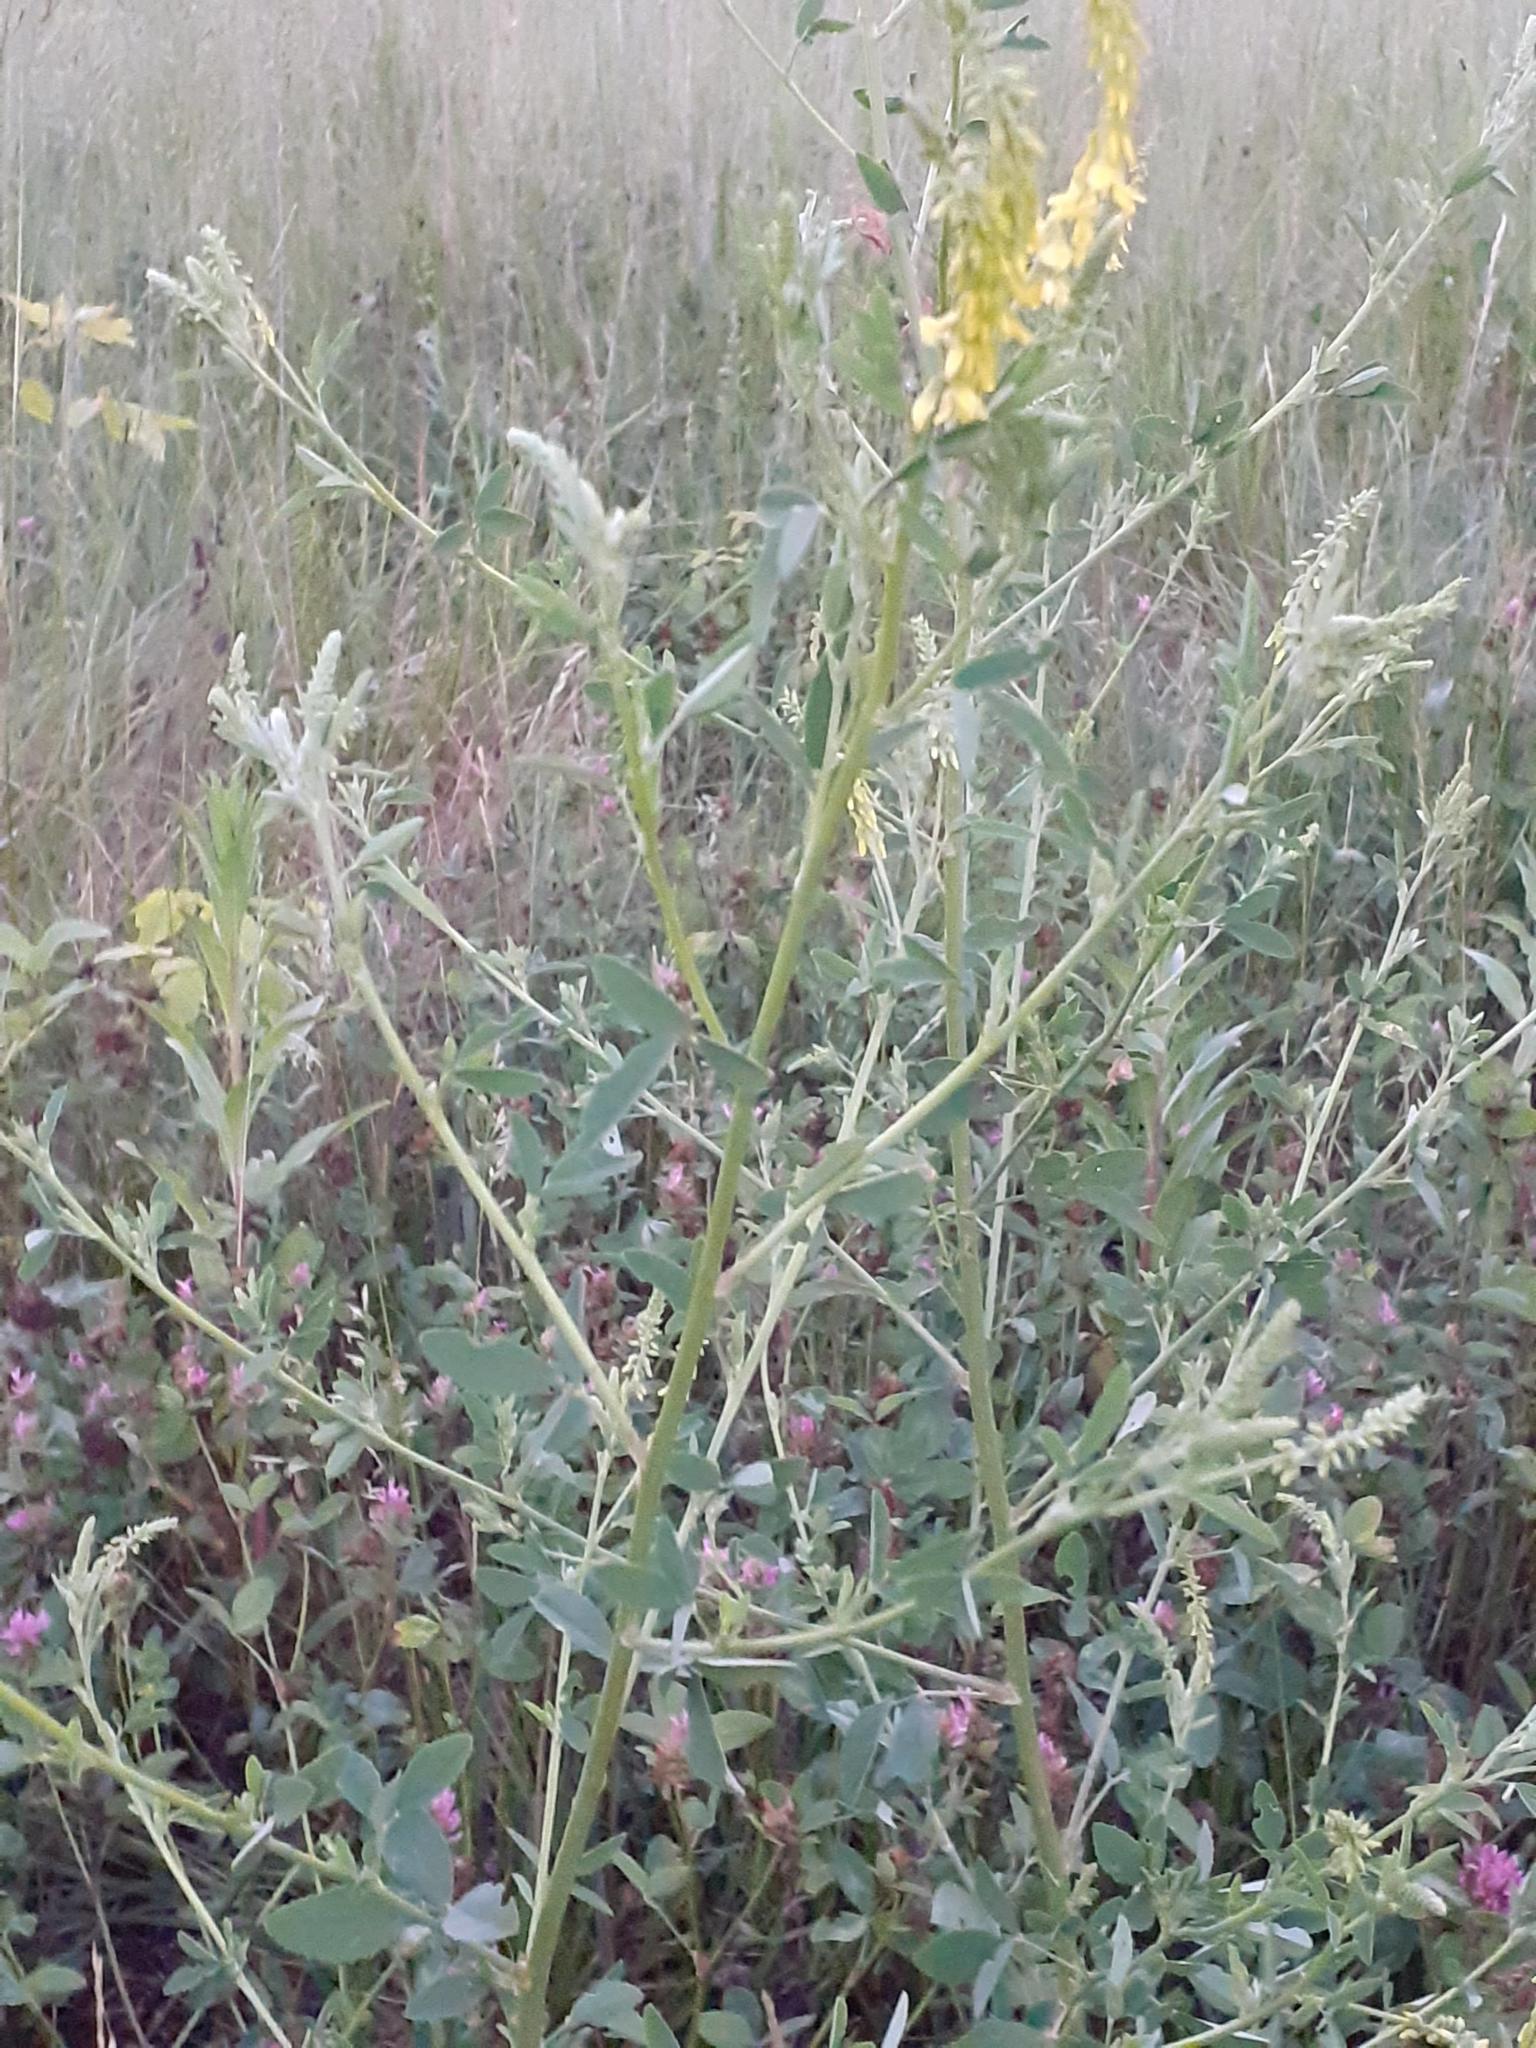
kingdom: Plantae
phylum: Tracheophyta
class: Magnoliopsida
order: Fabales
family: Fabaceae
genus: Melilotus
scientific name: Melilotus officinalis
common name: Sweetclover
